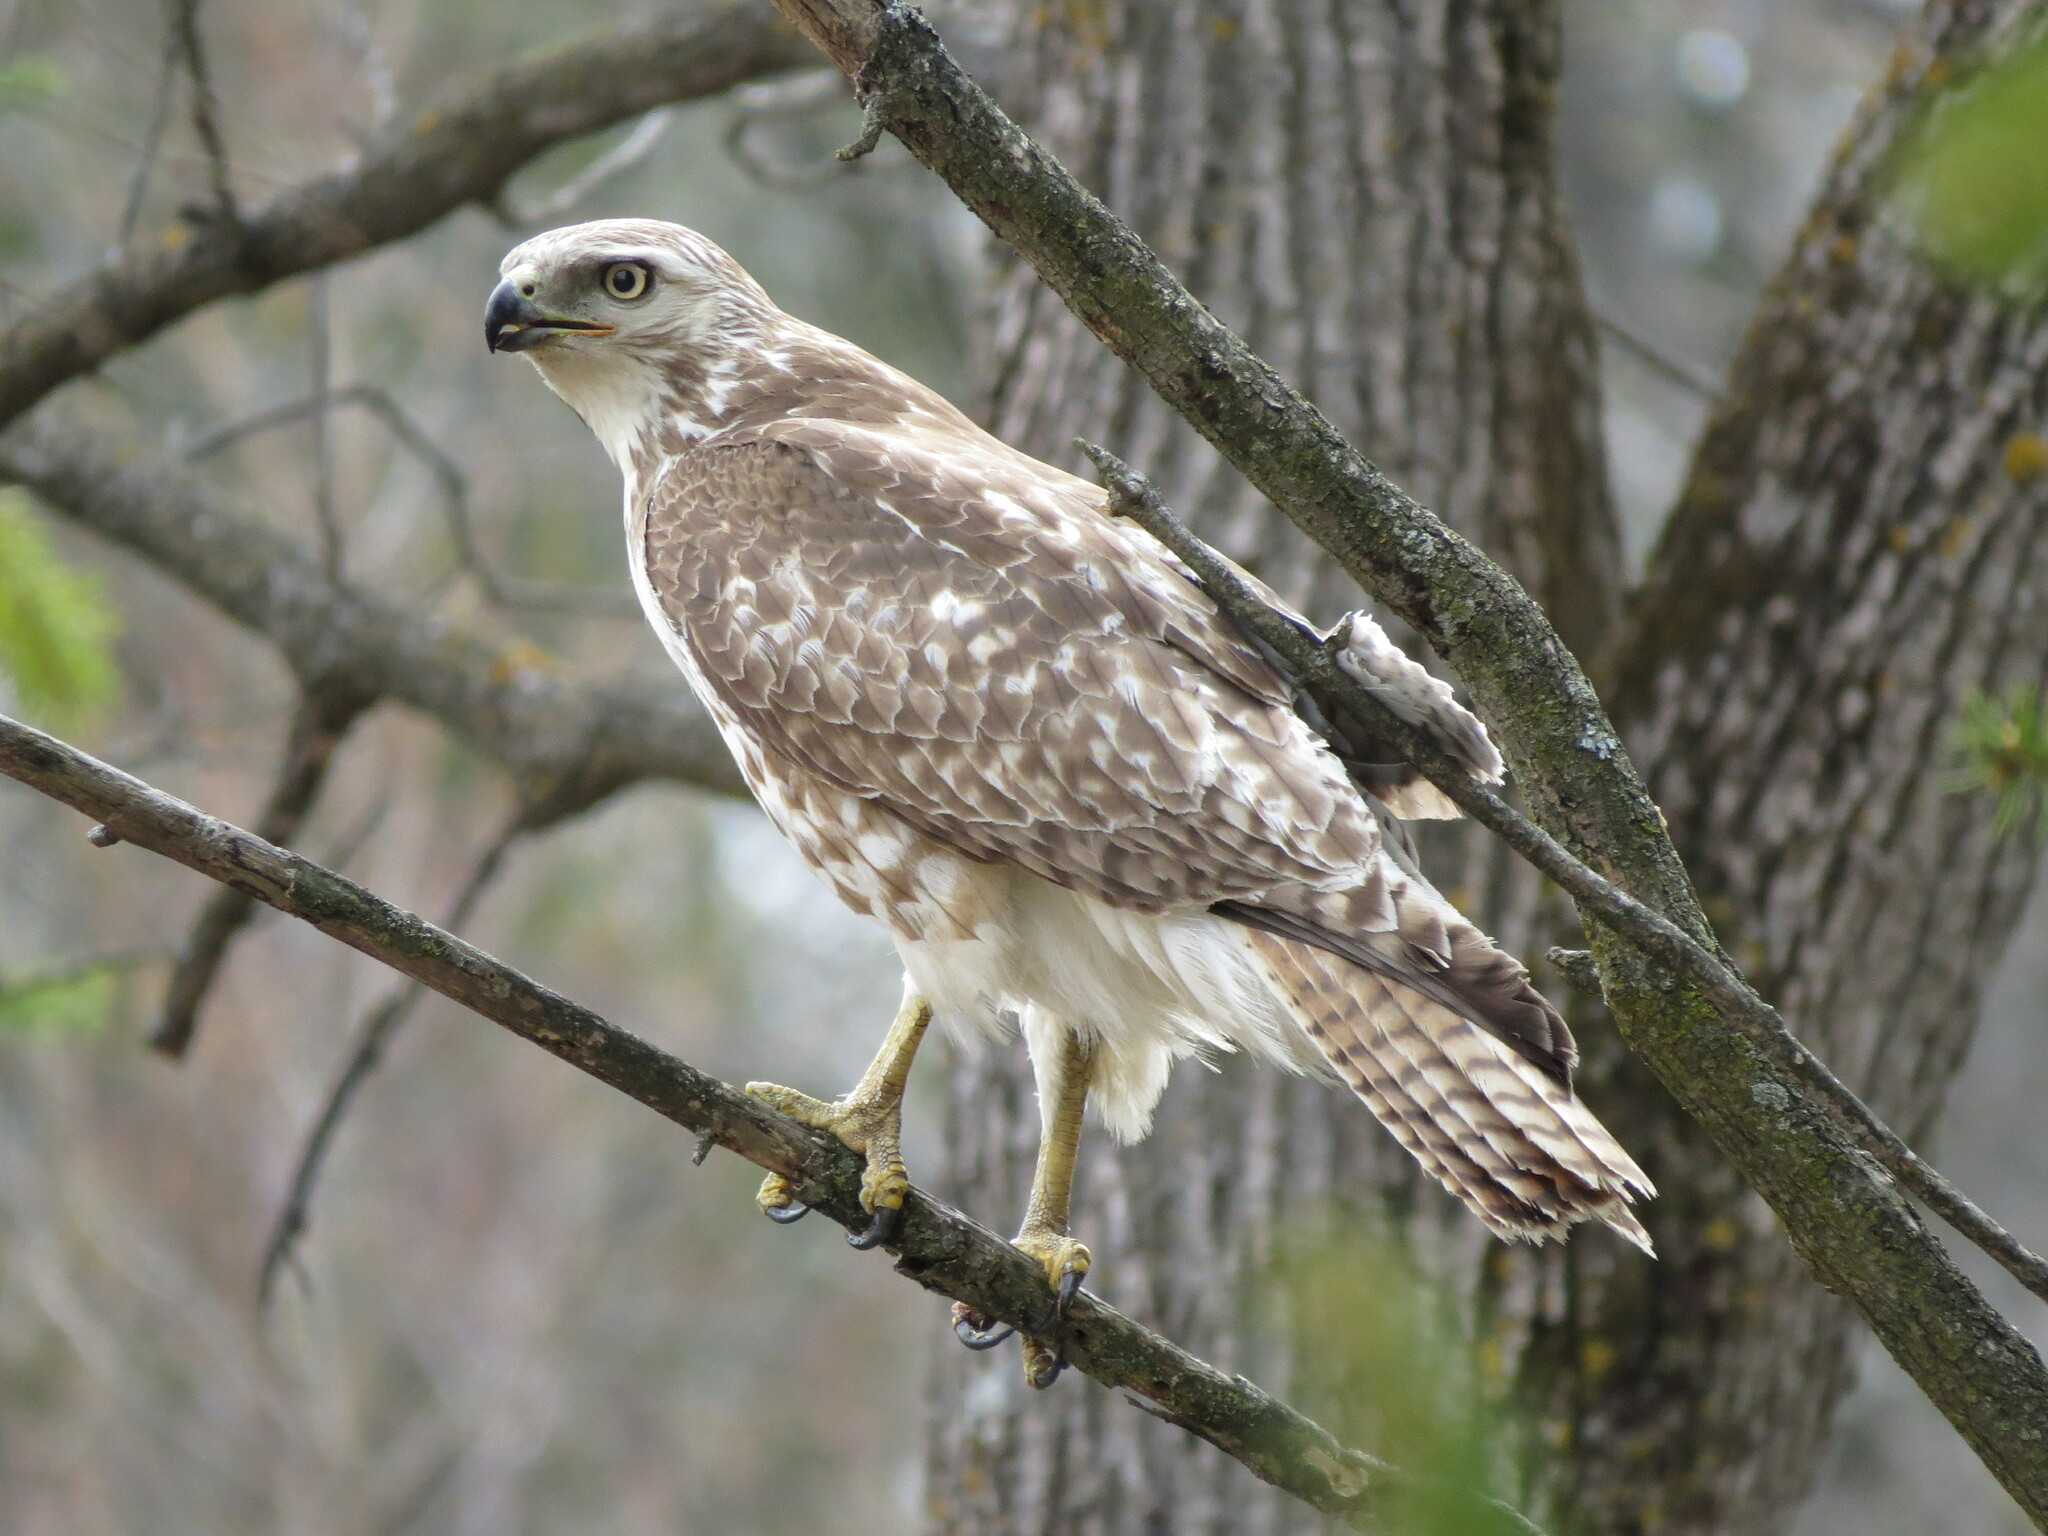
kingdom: Animalia
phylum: Chordata
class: Aves
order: Accipitriformes
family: Accipitridae
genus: Buteo
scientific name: Buteo jamaicensis
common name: Red-tailed hawk
